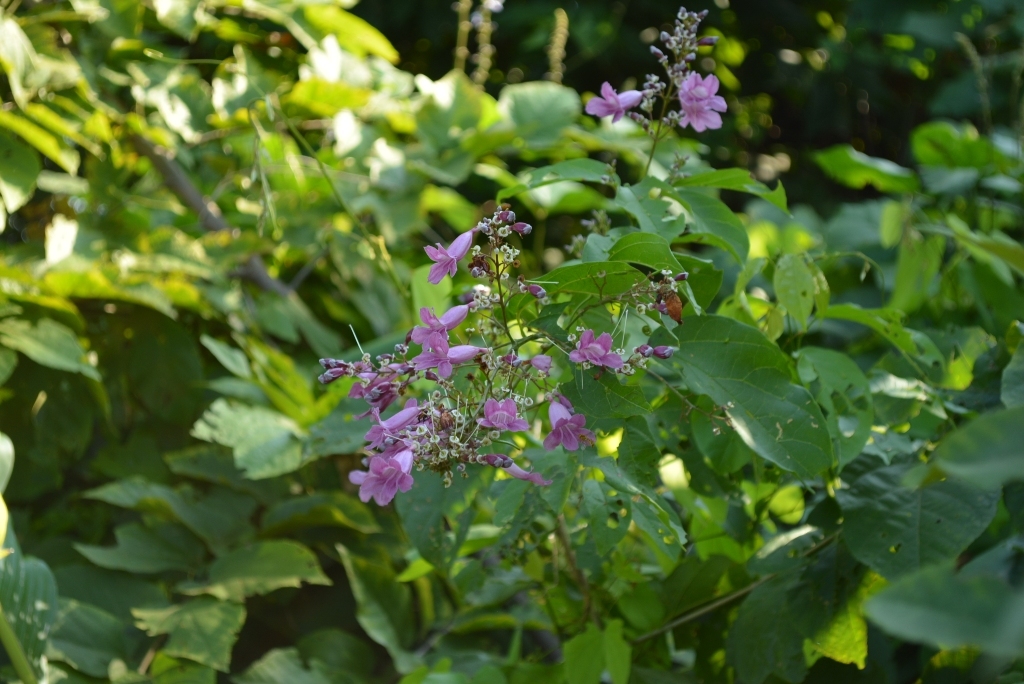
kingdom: Plantae
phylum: Tracheophyta
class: Magnoliopsida
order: Lamiales
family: Bignoniaceae
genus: Fridericia
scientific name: Fridericia patellifera
